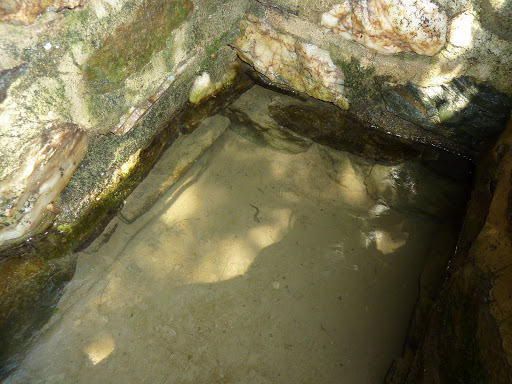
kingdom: Animalia
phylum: Chordata
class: Amphibia
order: Caudata
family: Plethodontidae
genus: Pseudotriton
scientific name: Pseudotriton ruber
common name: Red salamander
